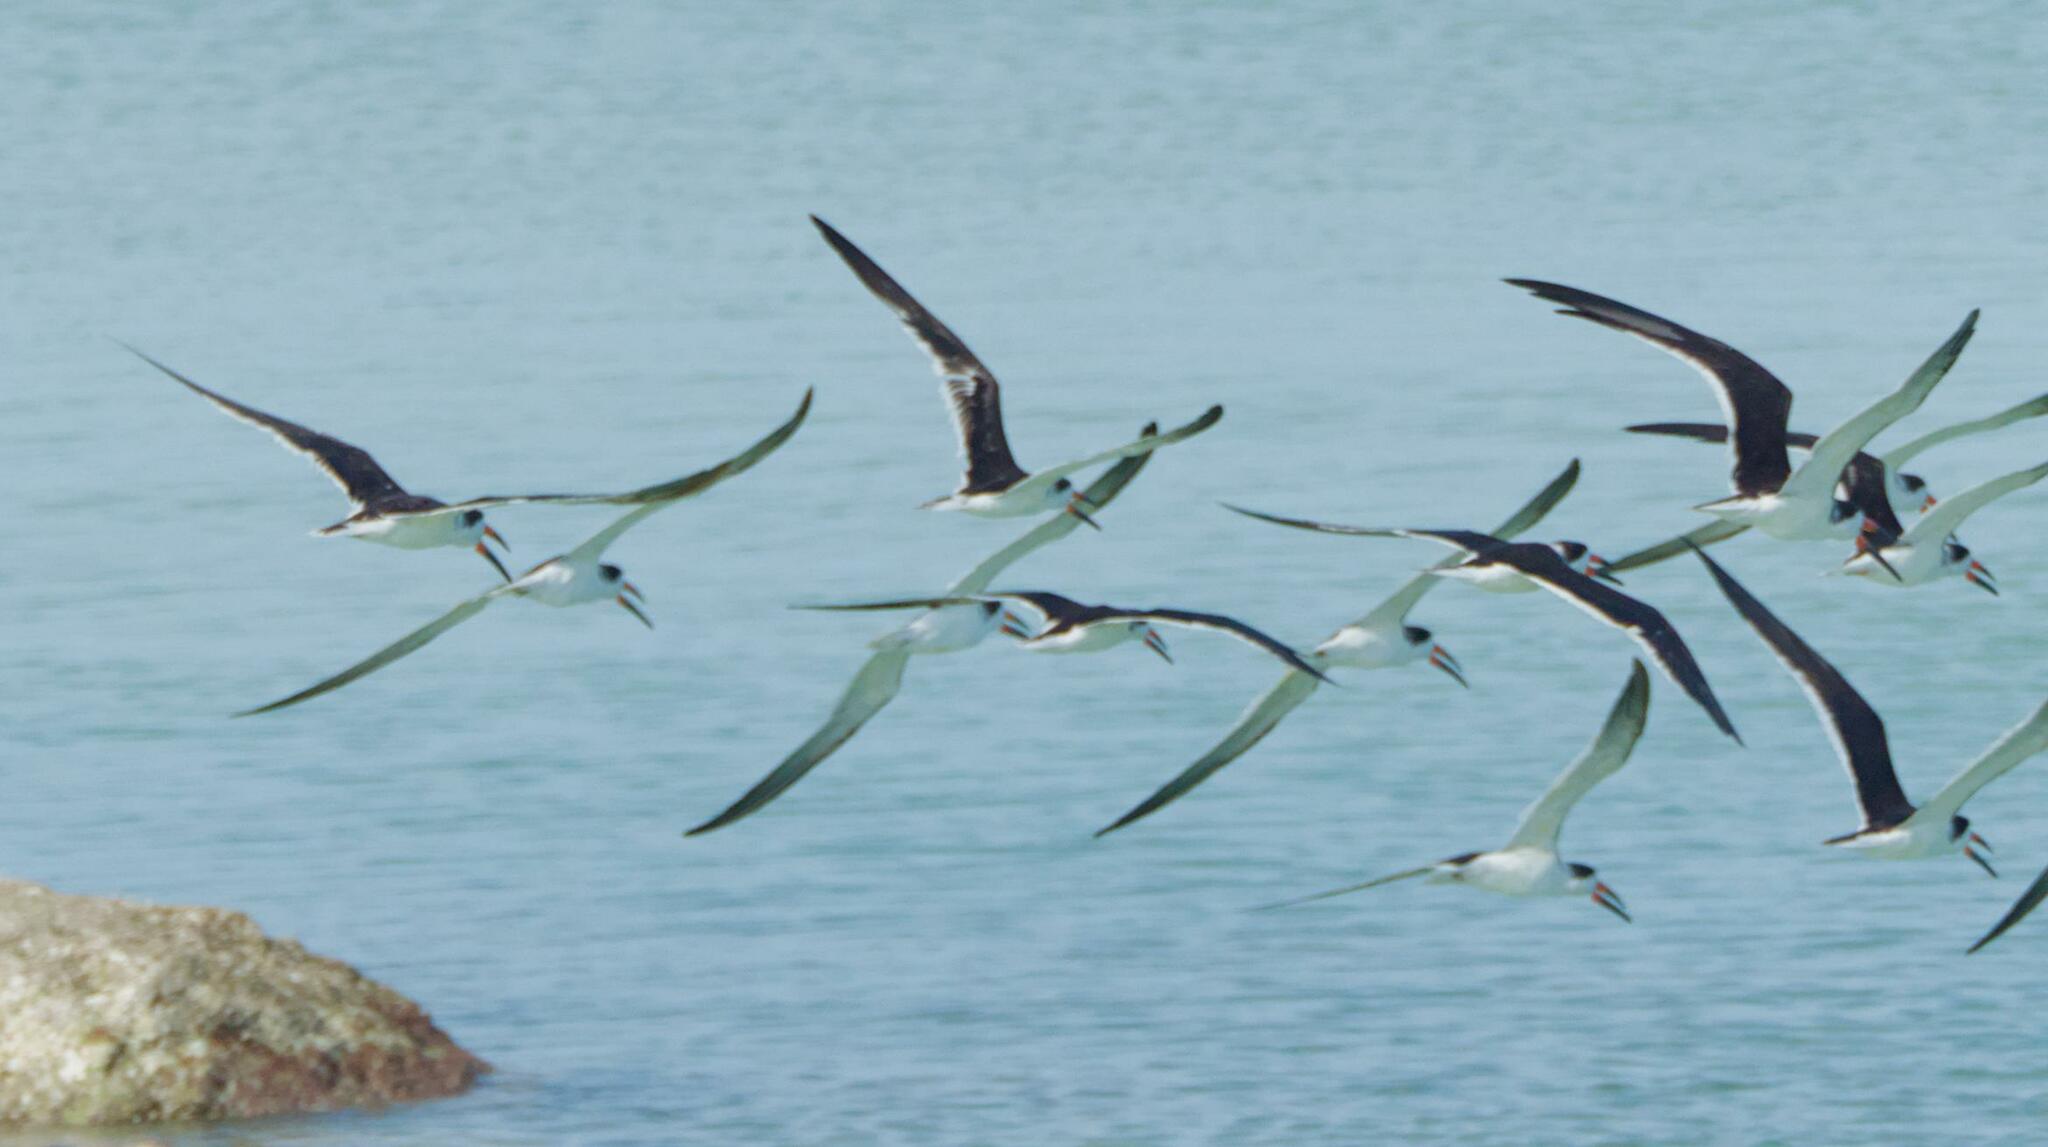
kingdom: Animalia
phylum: Chordata
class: Aves
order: Charadriiformes
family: Laridae
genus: Rynchops
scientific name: Rynchops niger
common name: Black skimmer
